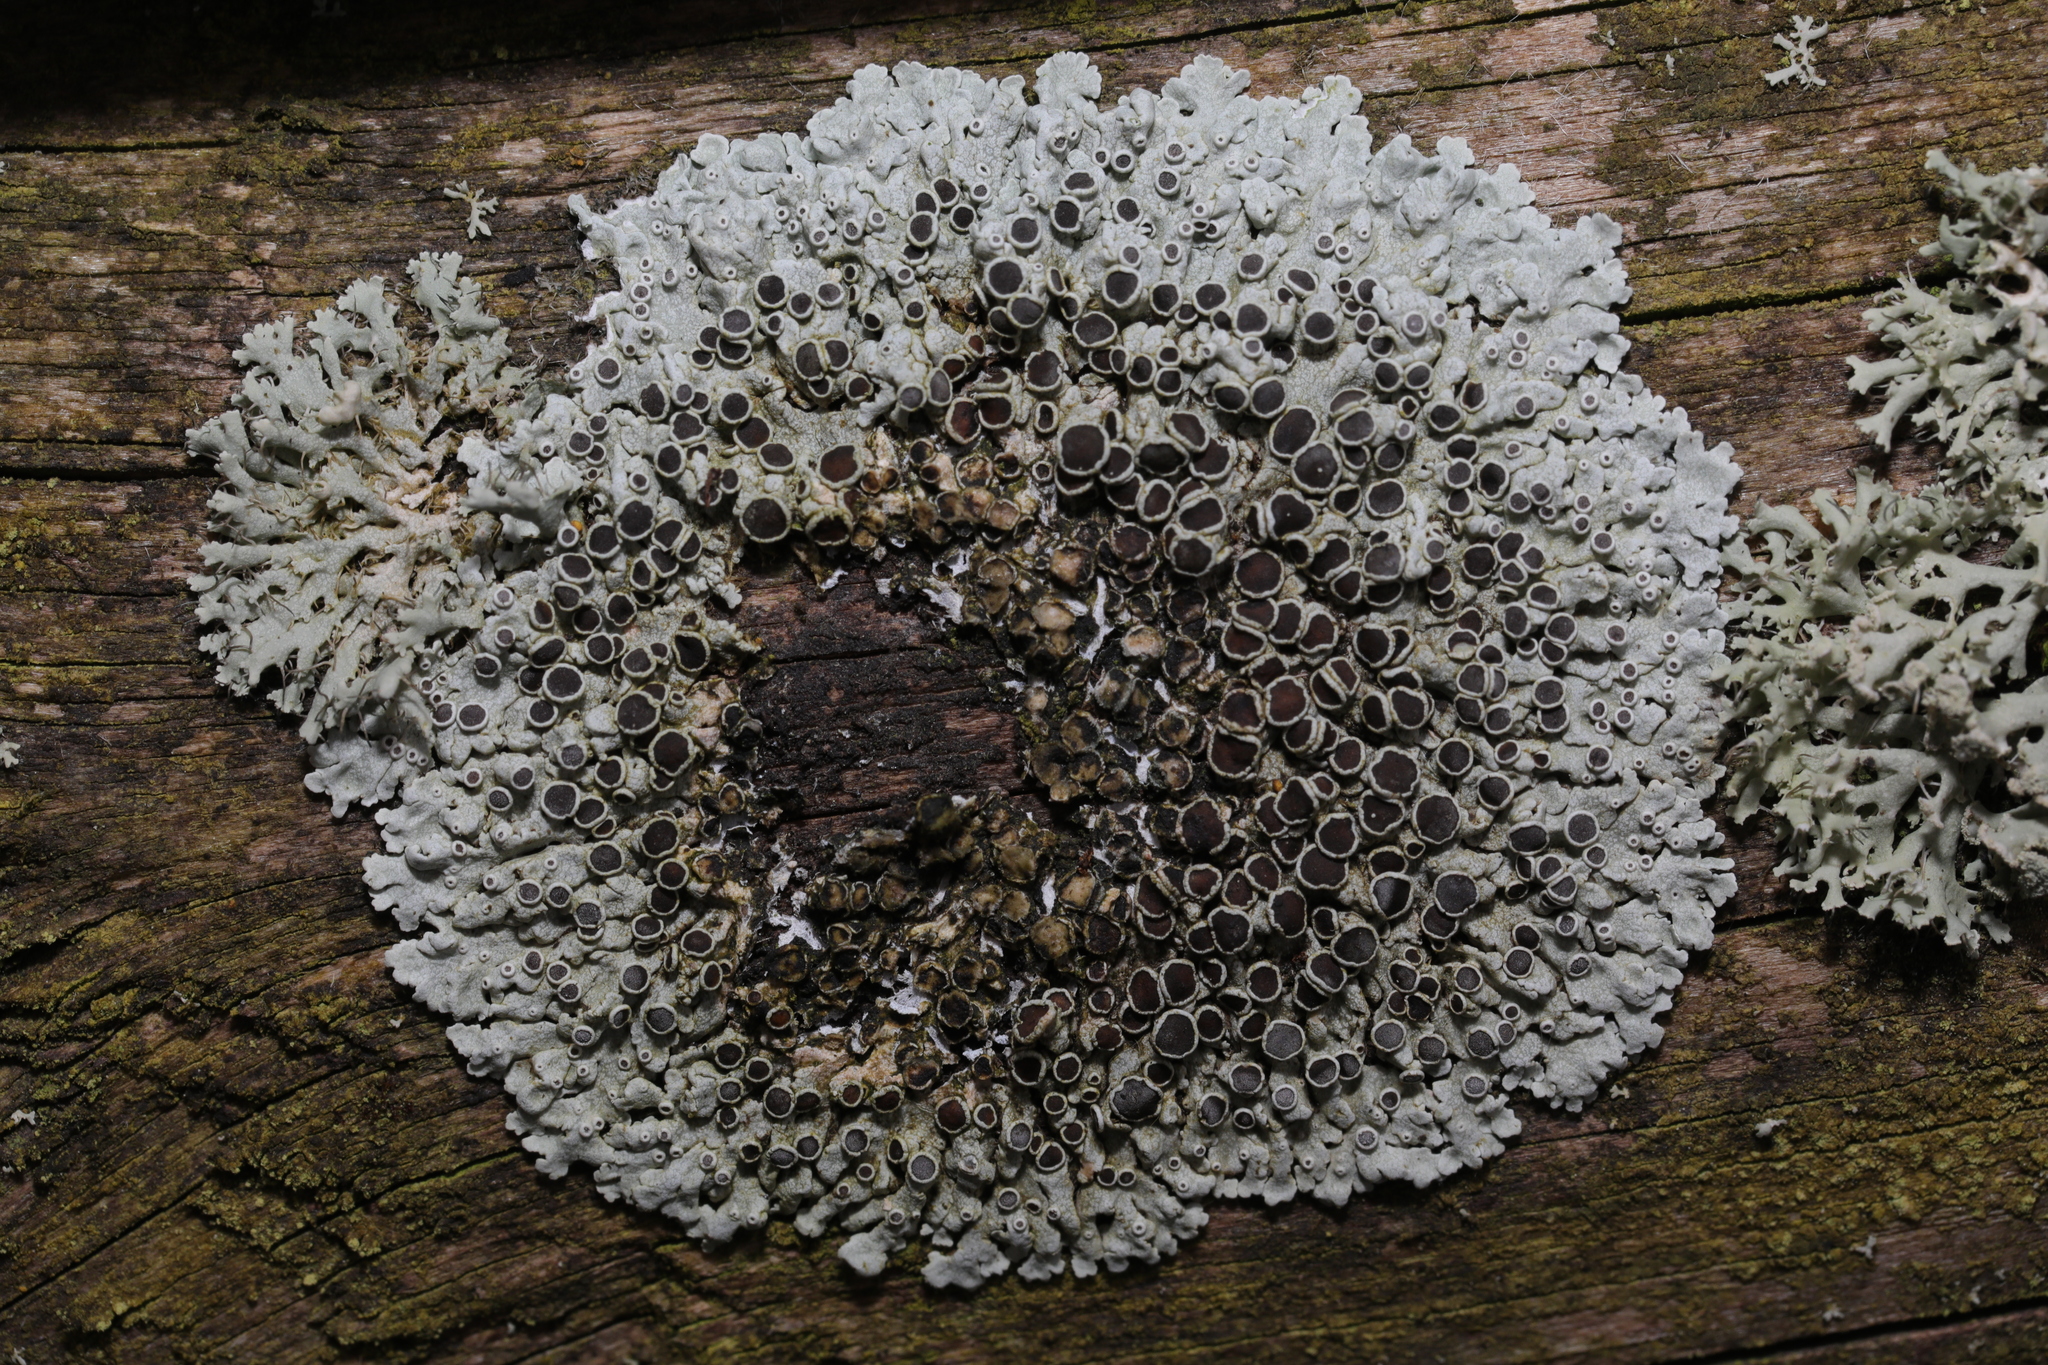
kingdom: Fungi
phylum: Ascomycota
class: Lecanoromycetes
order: Caliciales
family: Physciaceae
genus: Physcia
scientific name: Physcia aipolia
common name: Hoary rosette lichen
